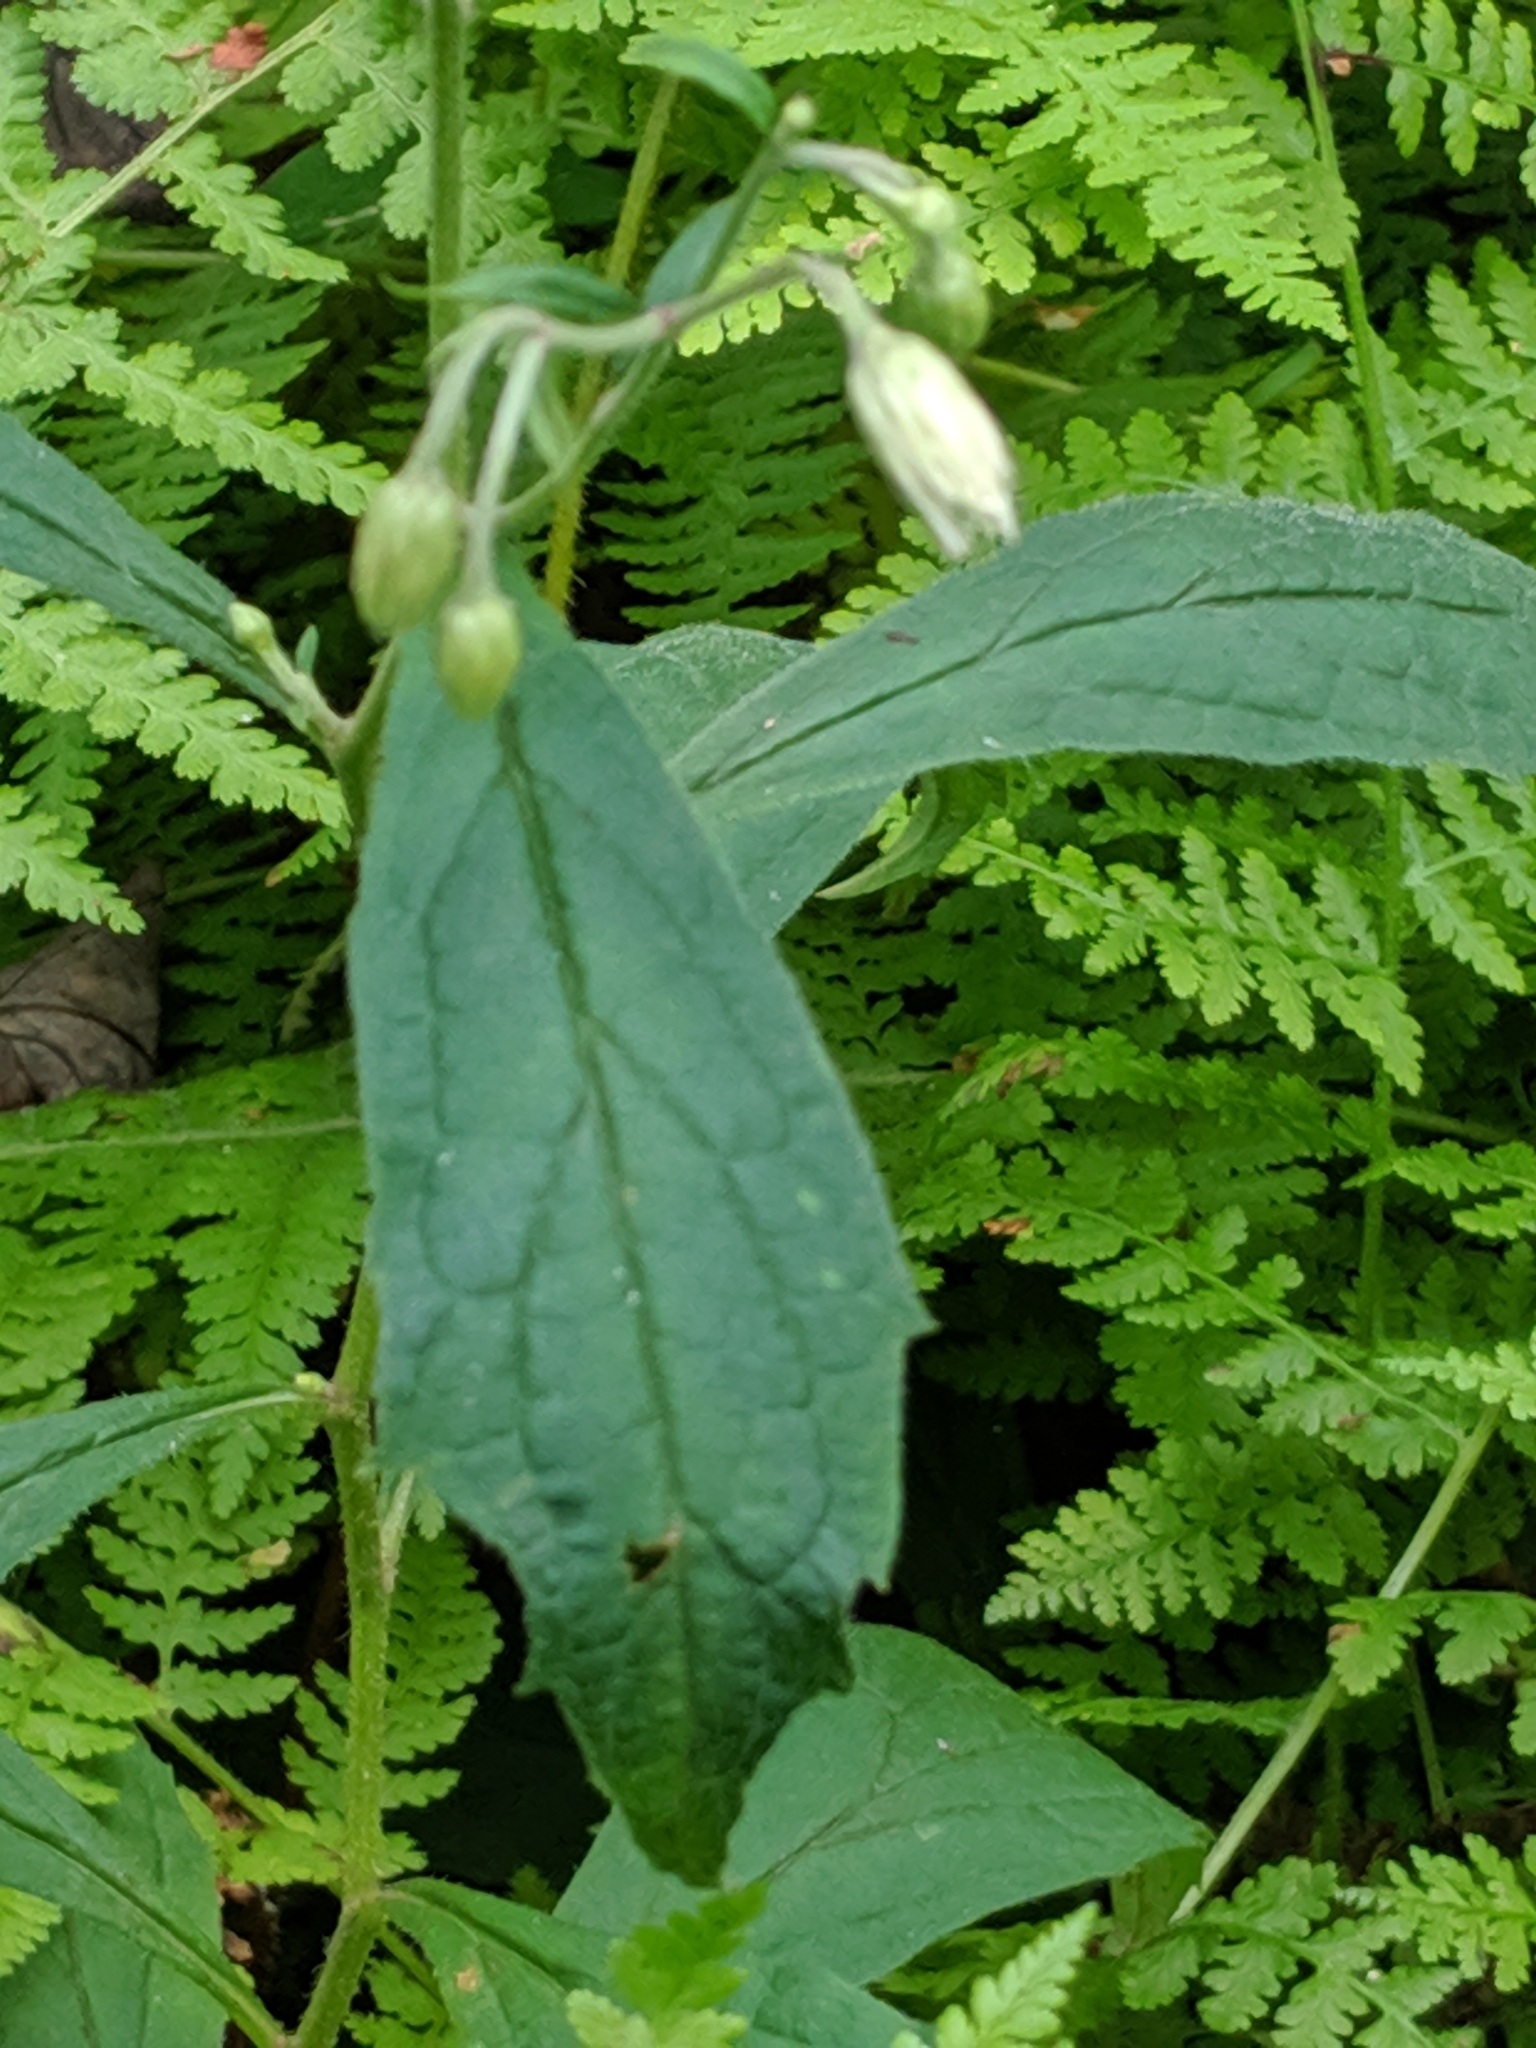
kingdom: Plantae
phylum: Tracheophyta
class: Magnoliopsida
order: Asterales
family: Asteraceae
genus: Oclemena
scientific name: Oclemena acuminata
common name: Mountain aster
